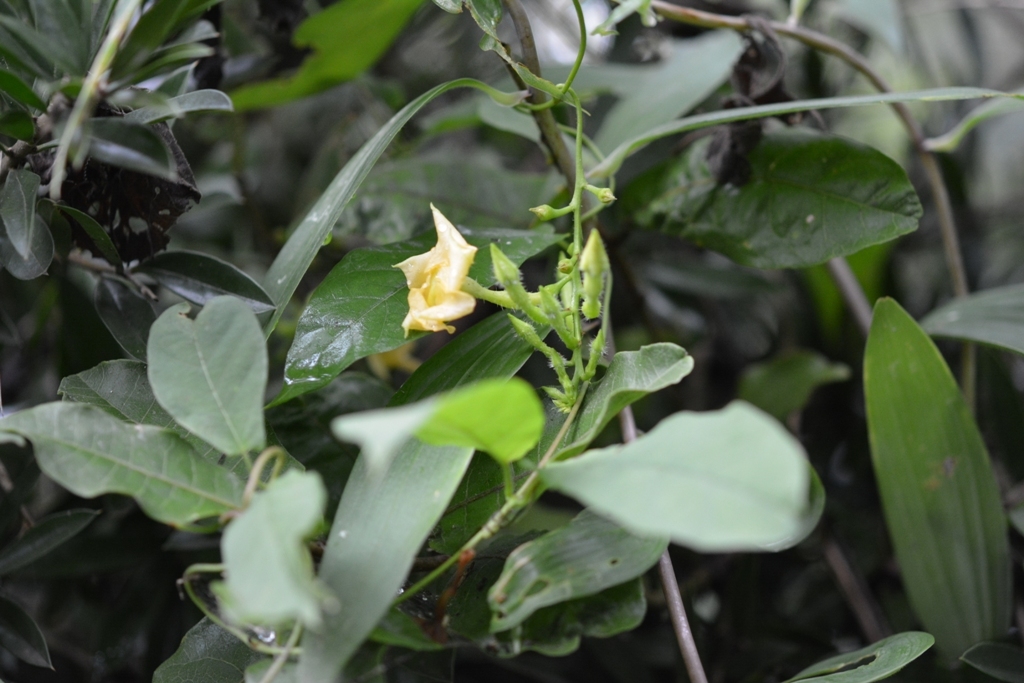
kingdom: Plantae
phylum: Tracheophyta
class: Magnoliopsida
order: Gentianales
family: Apocynaceae
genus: Mandevilla
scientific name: Mandevilla subsagittata
